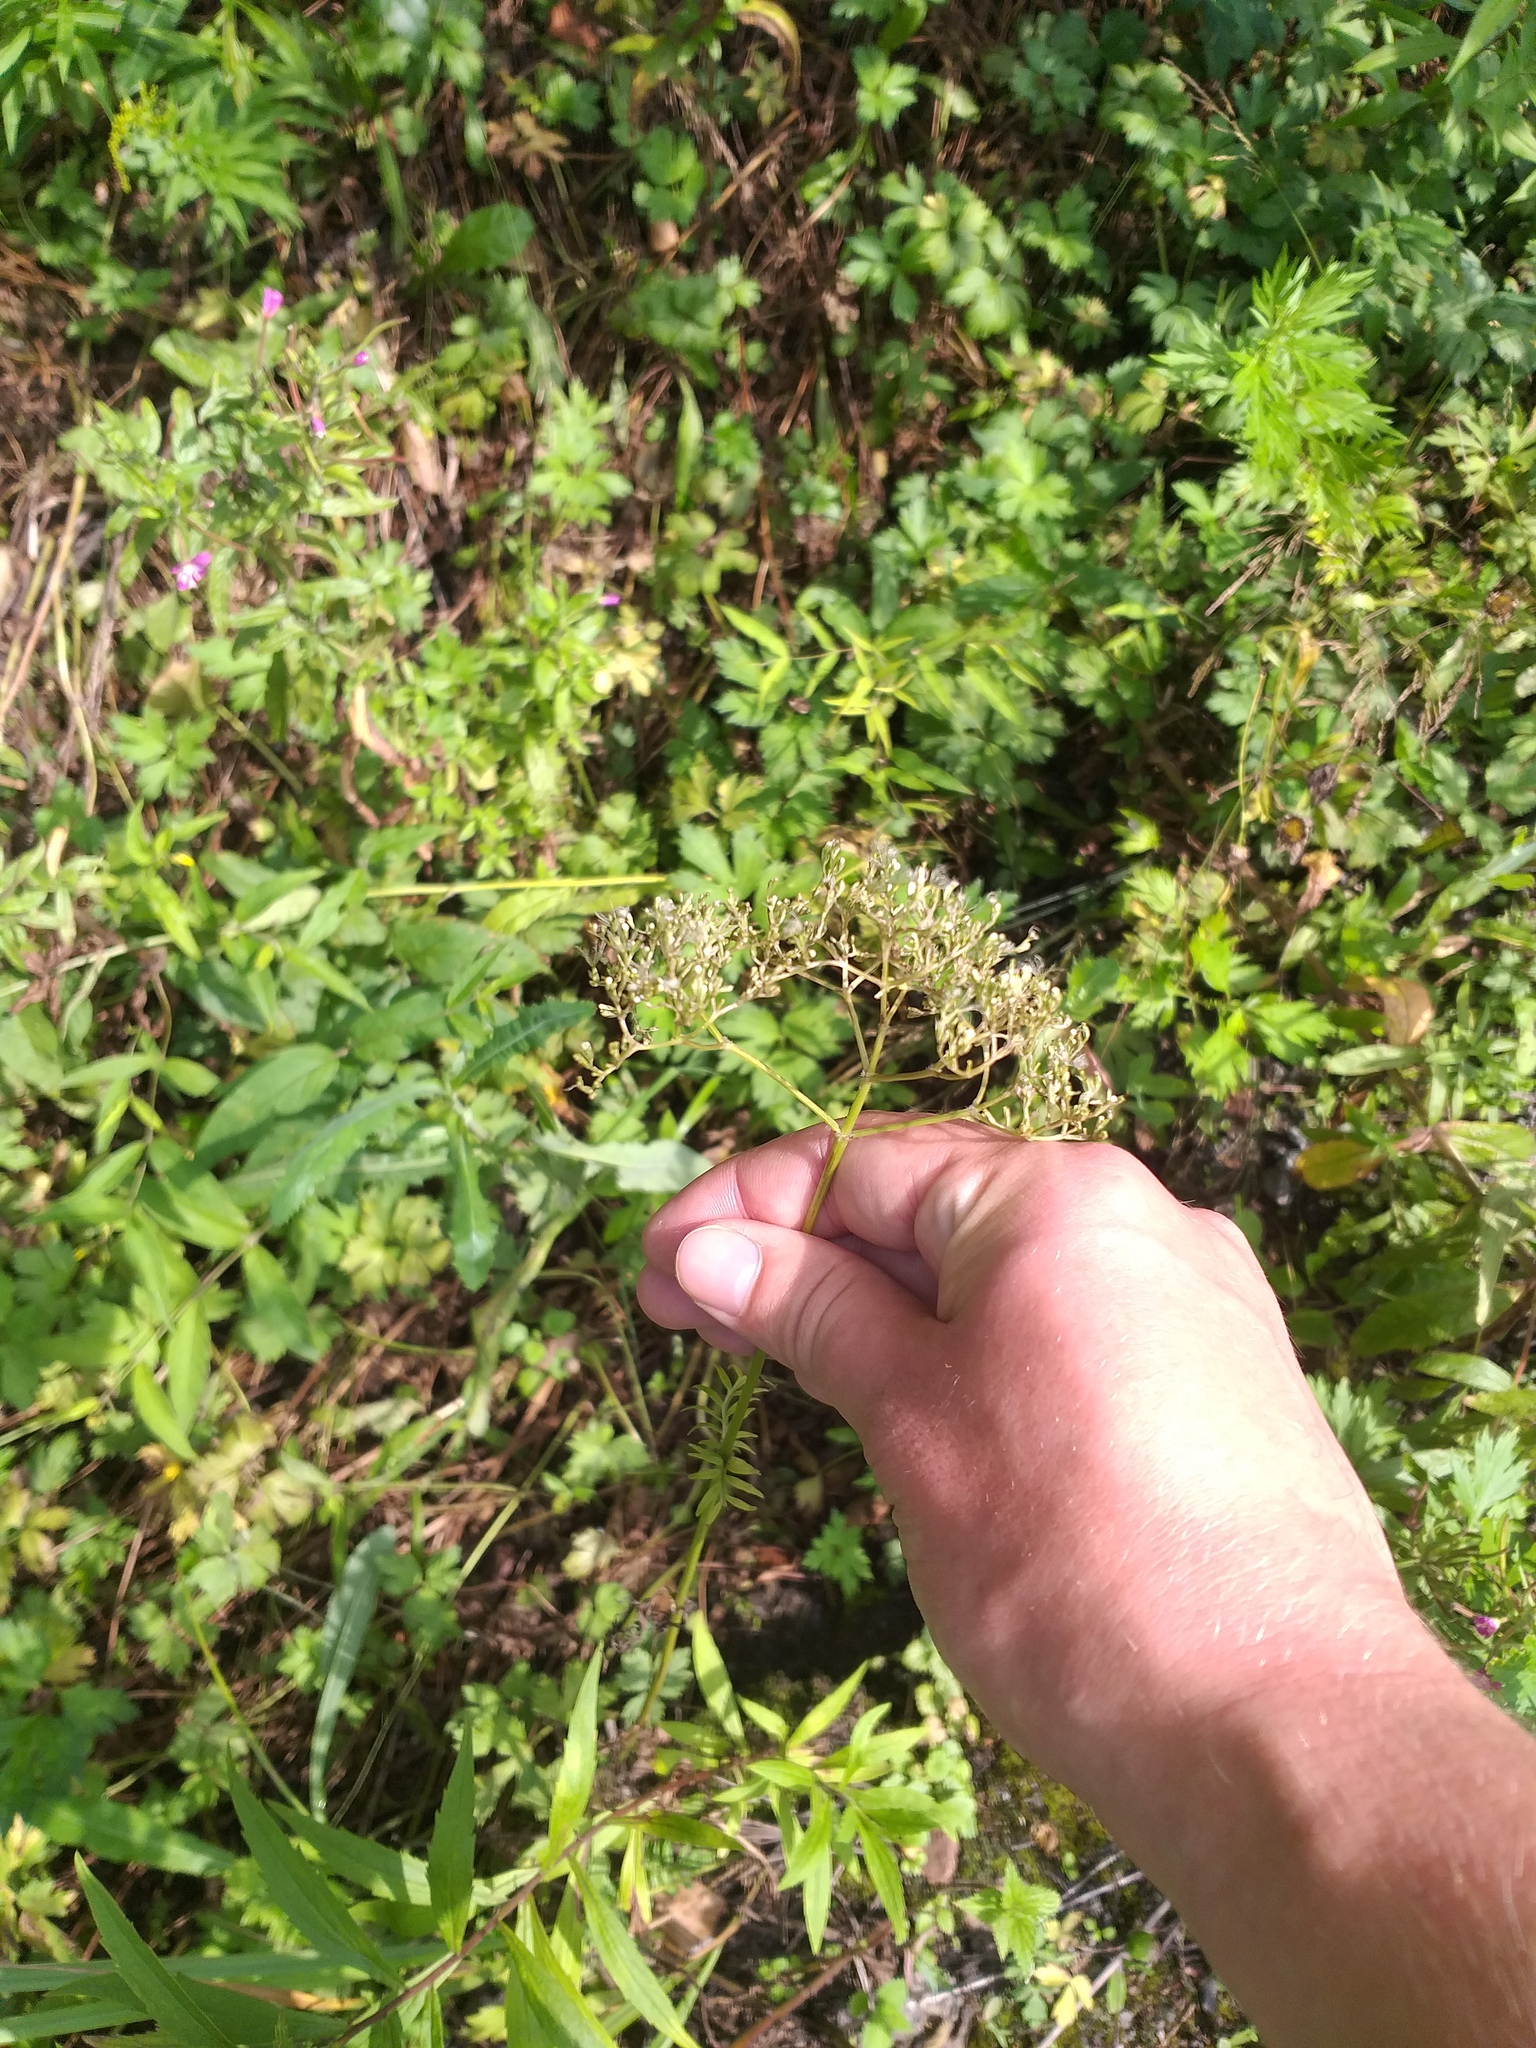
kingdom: Plantae
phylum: Tracheophyta
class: Magnoliopsida
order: Dipsacales
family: Caprifoliaceae
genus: Valeriana
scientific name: Valeriana officinalis
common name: Common valerian
